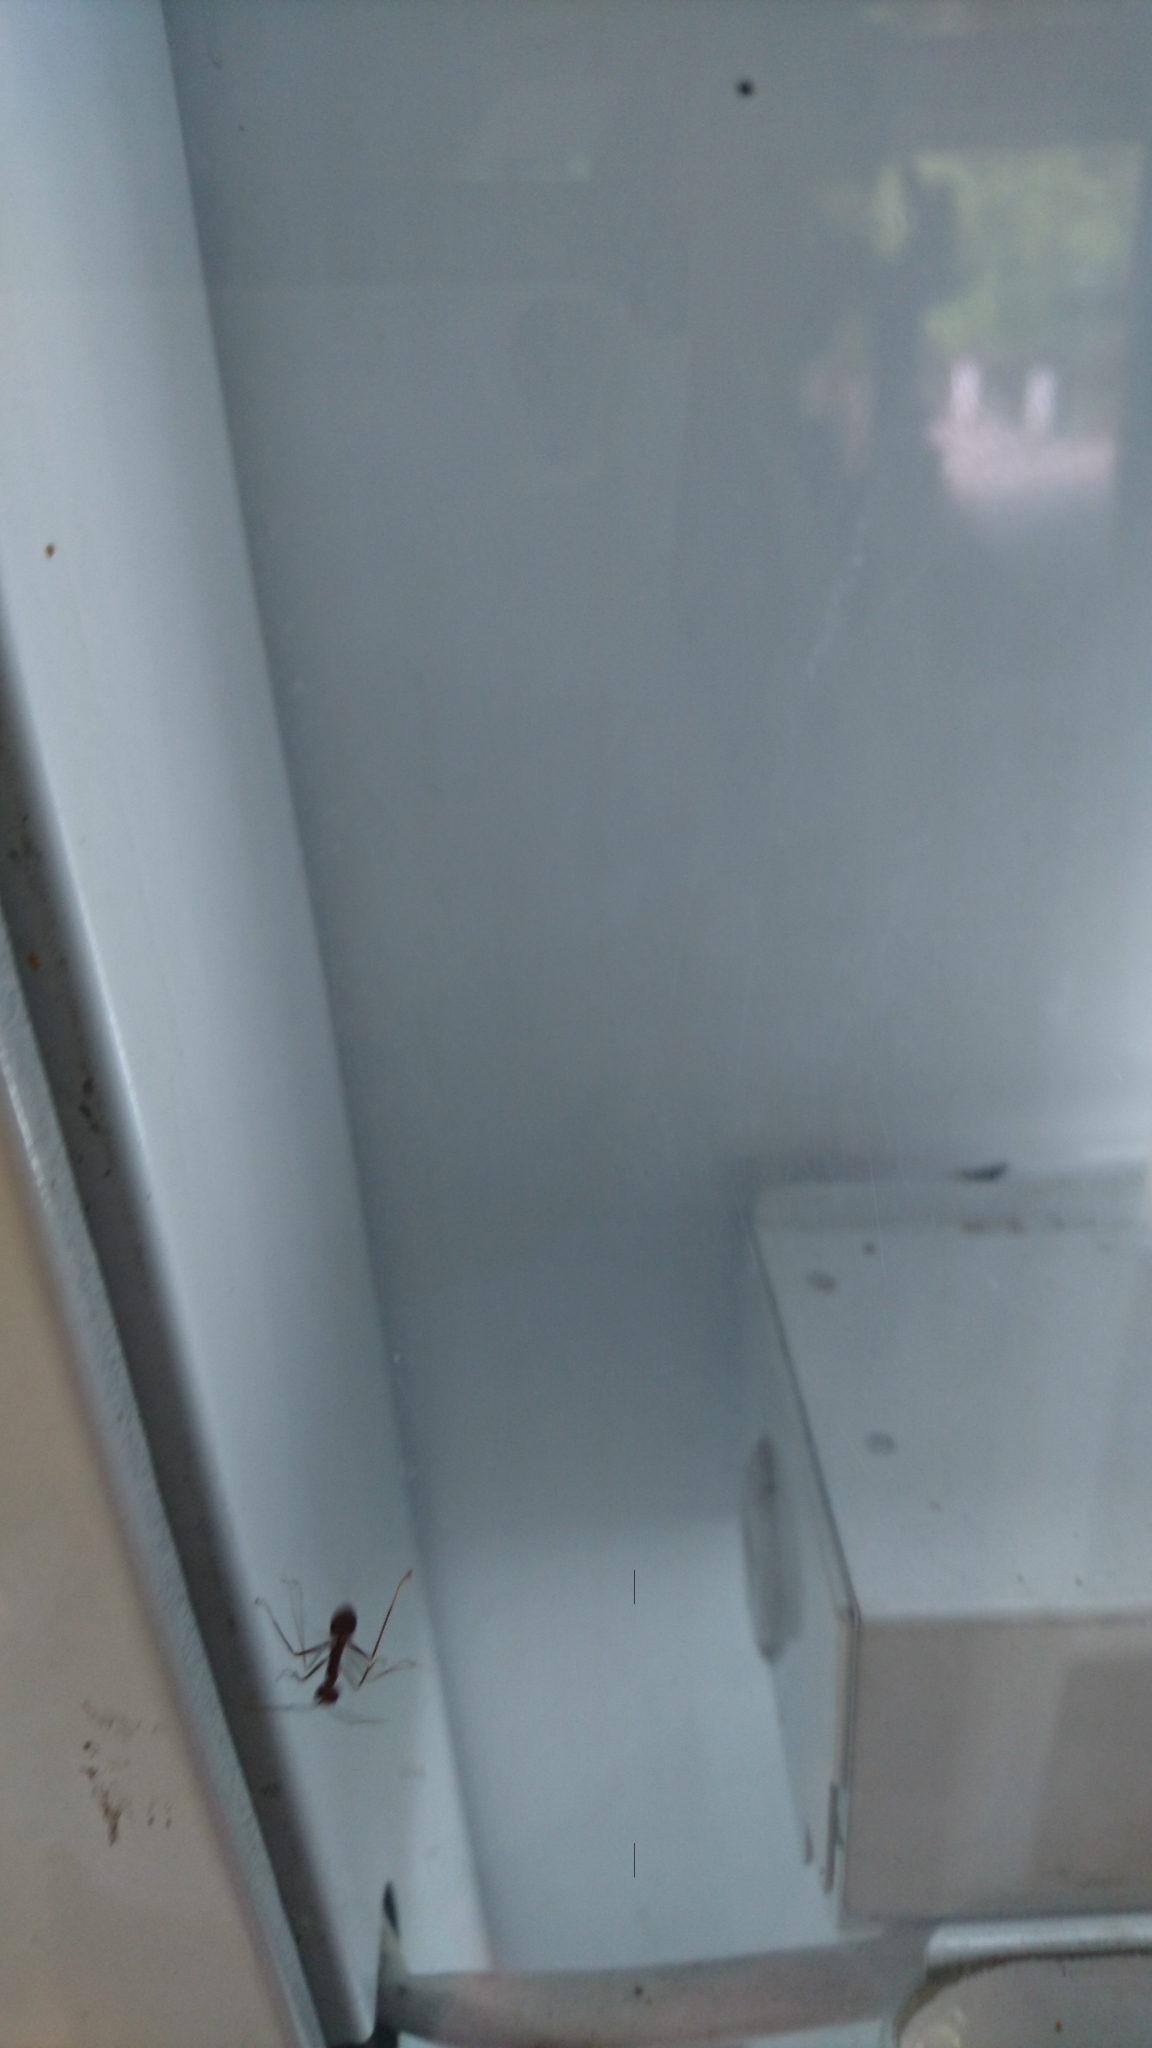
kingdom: Animalia
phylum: Arthropoda
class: Insecta
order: Hymenoptera
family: Formicidae
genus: Oecophylla
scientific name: Oecophylla smaragdina
